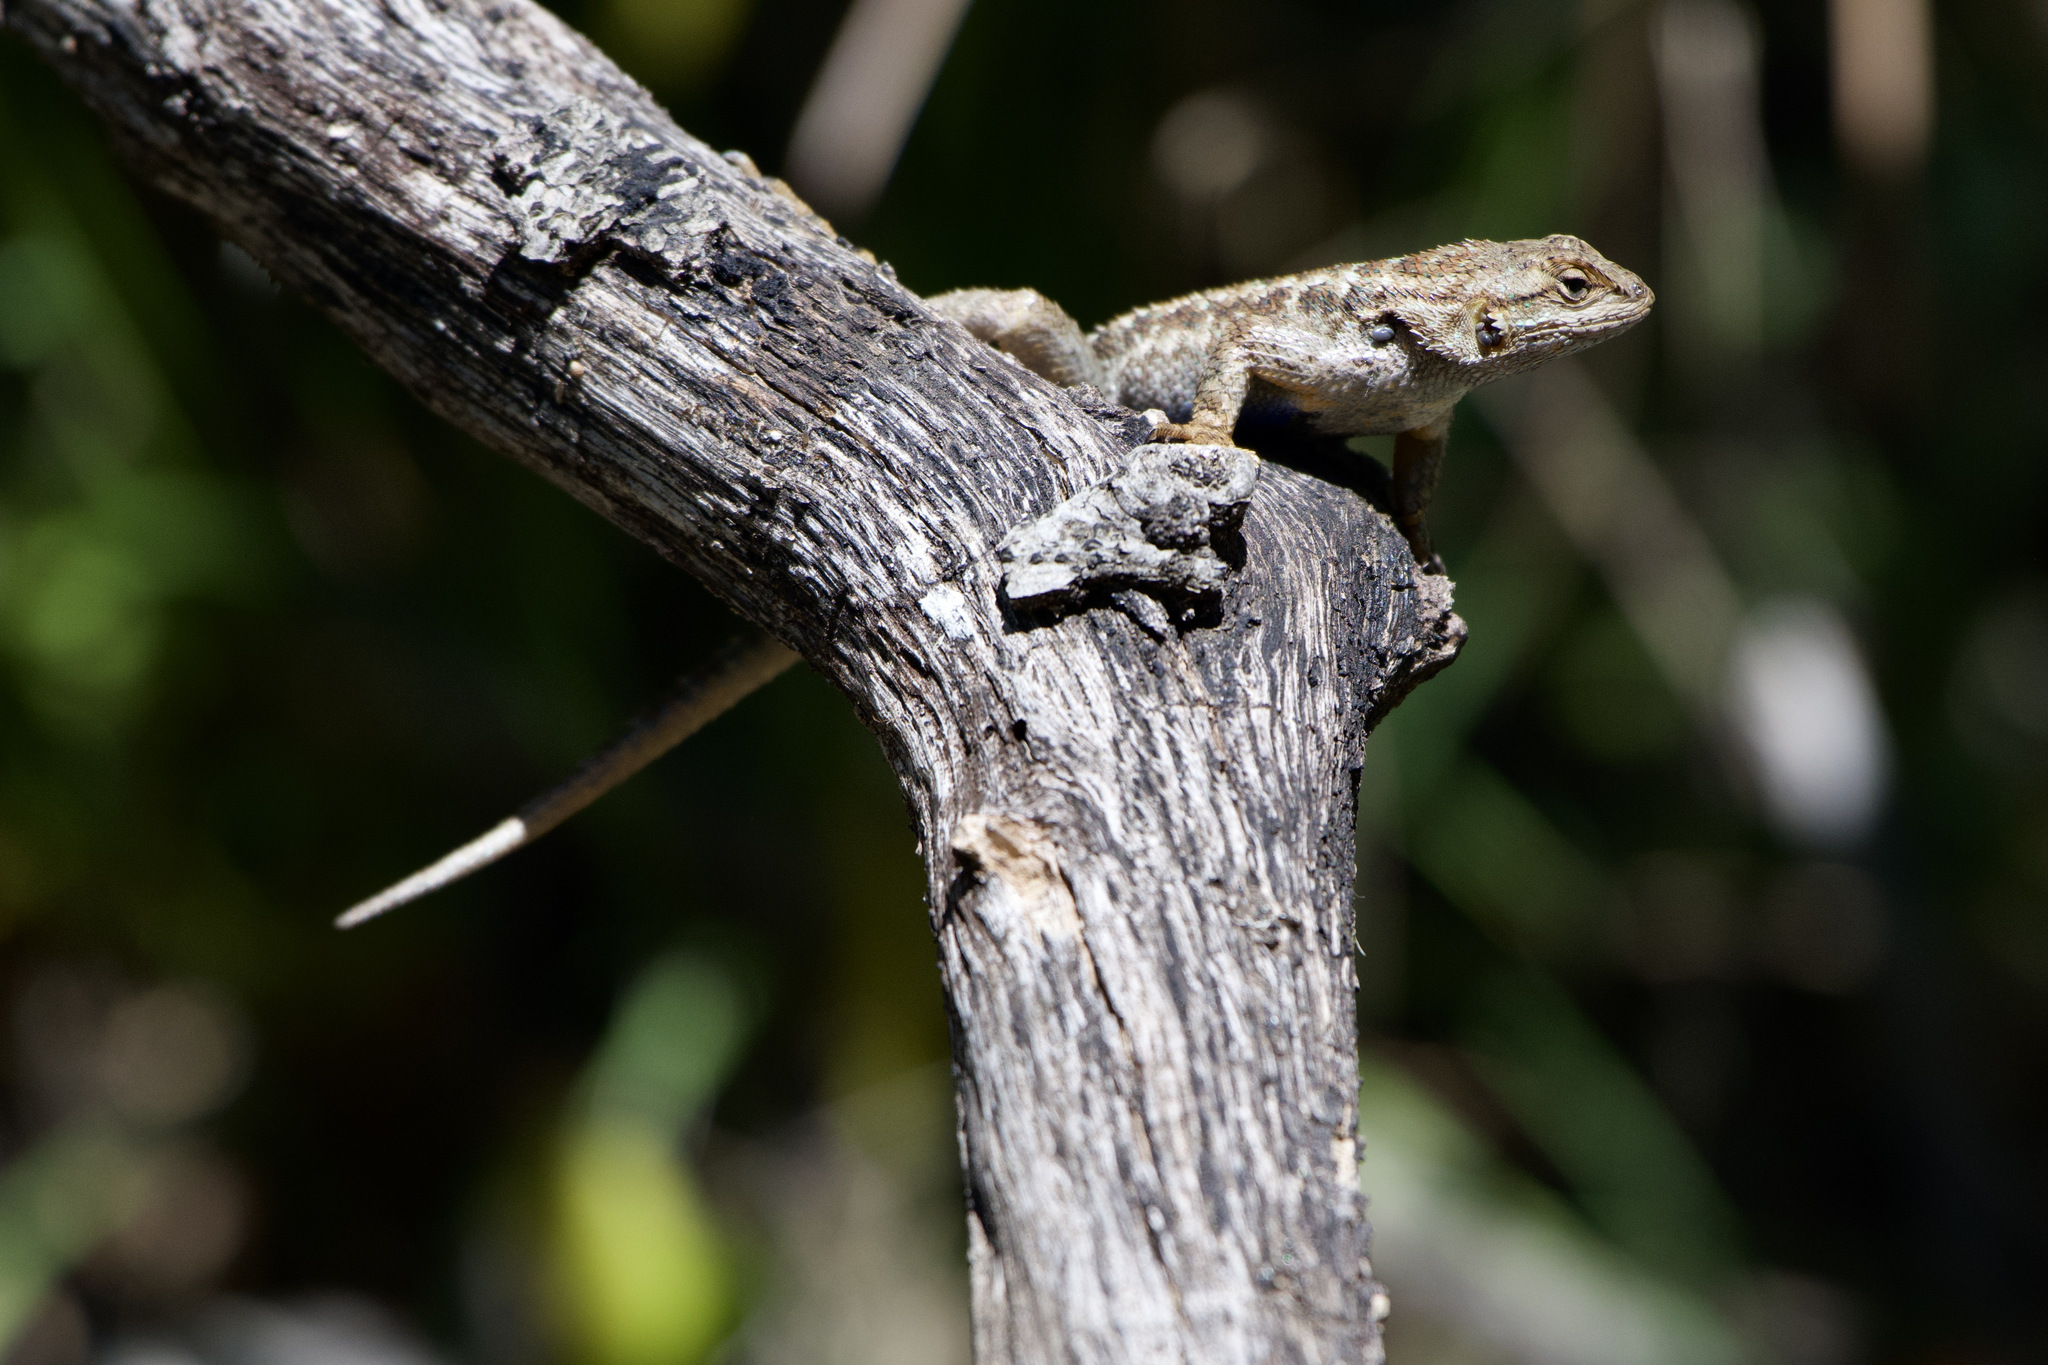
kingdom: Animalia
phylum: Chordata
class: Squamata
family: Phrynosomatidae
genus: Sceloporus
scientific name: Sceloporus occidentalis
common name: Western fence lizard
